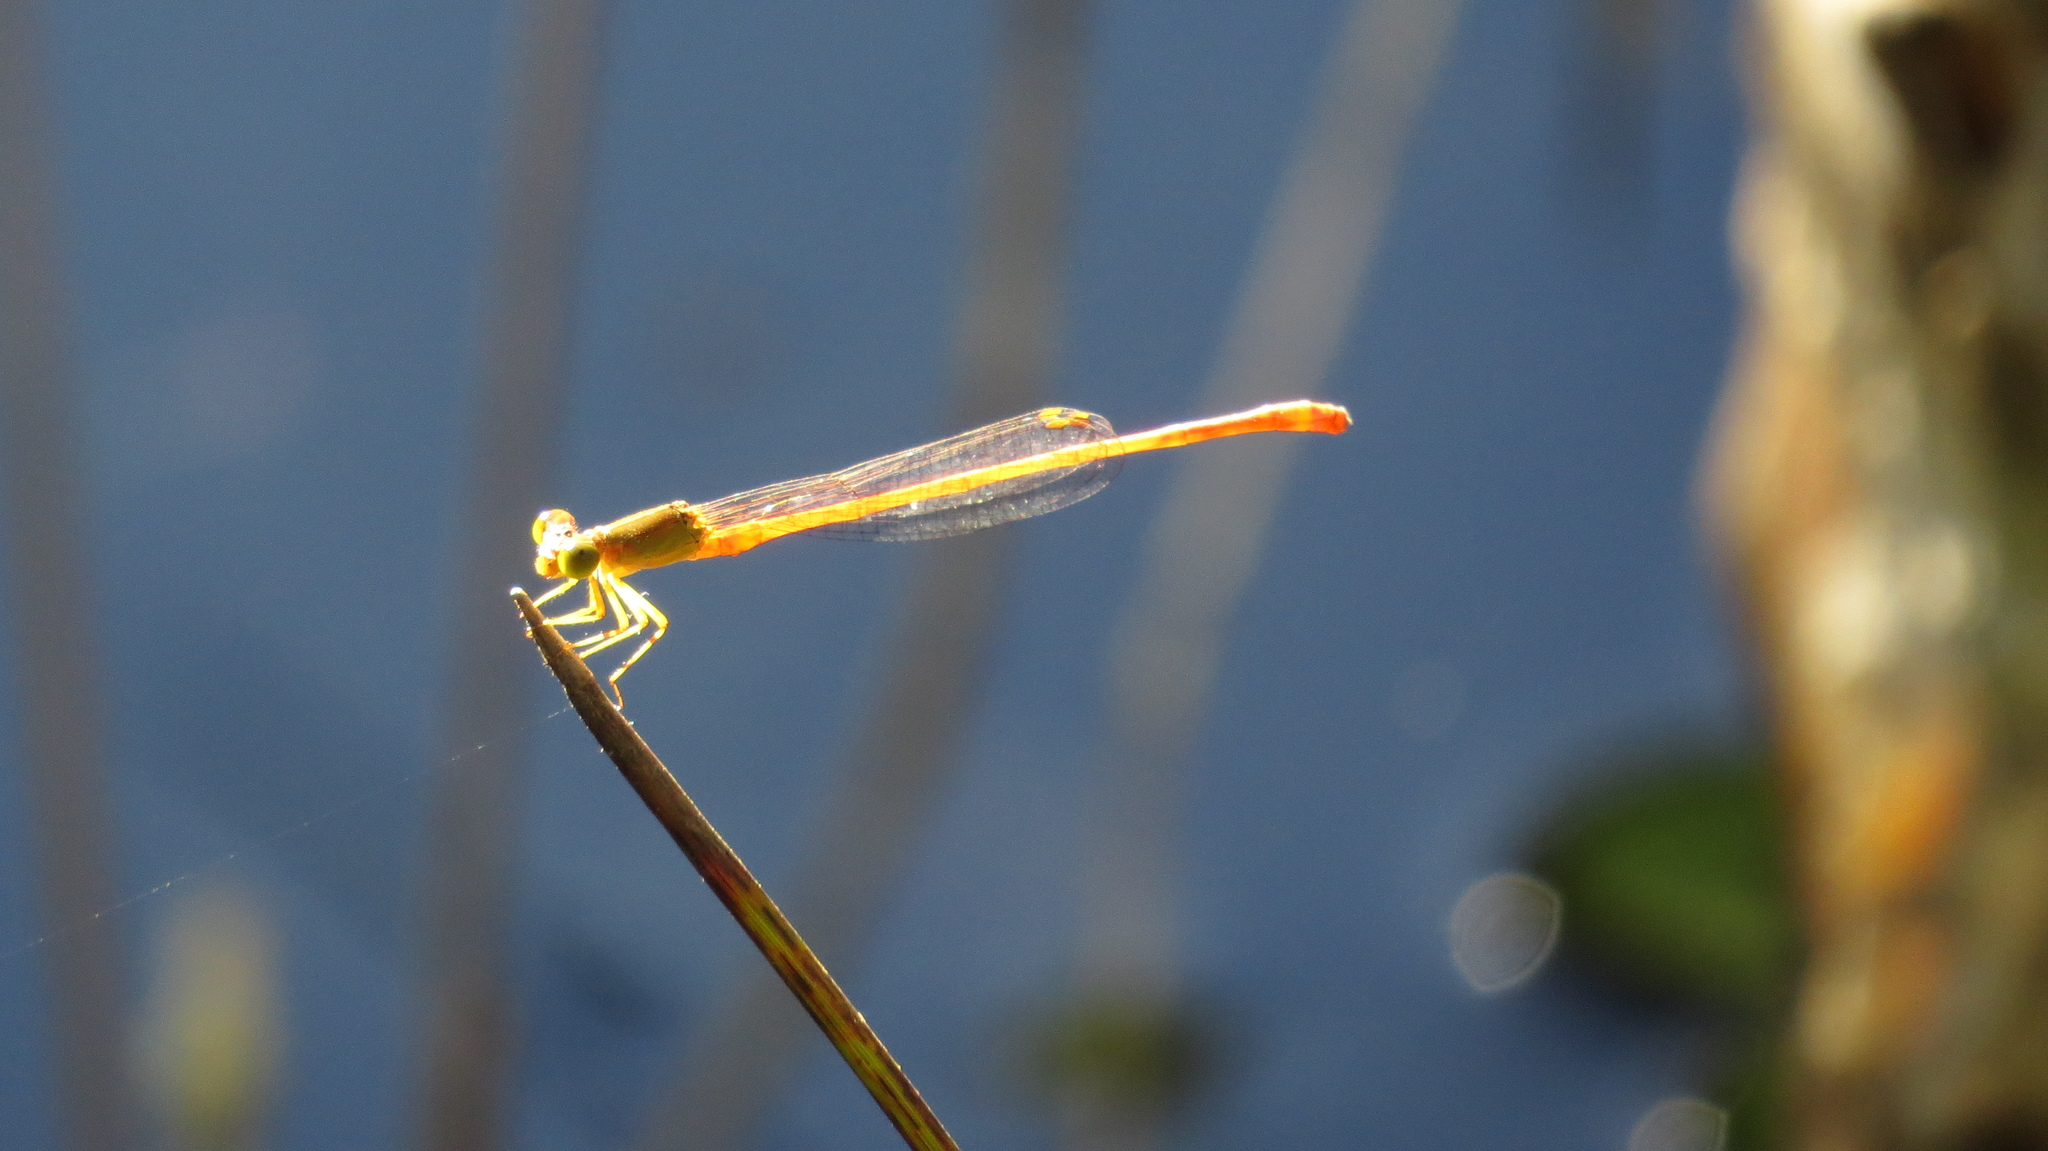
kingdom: Animalia
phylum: Arthropoda
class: Insecta
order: Odonata
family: Coenagrionidae
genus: Ceriagrion
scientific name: Ceriagrion aeruginosum
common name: Redtail
